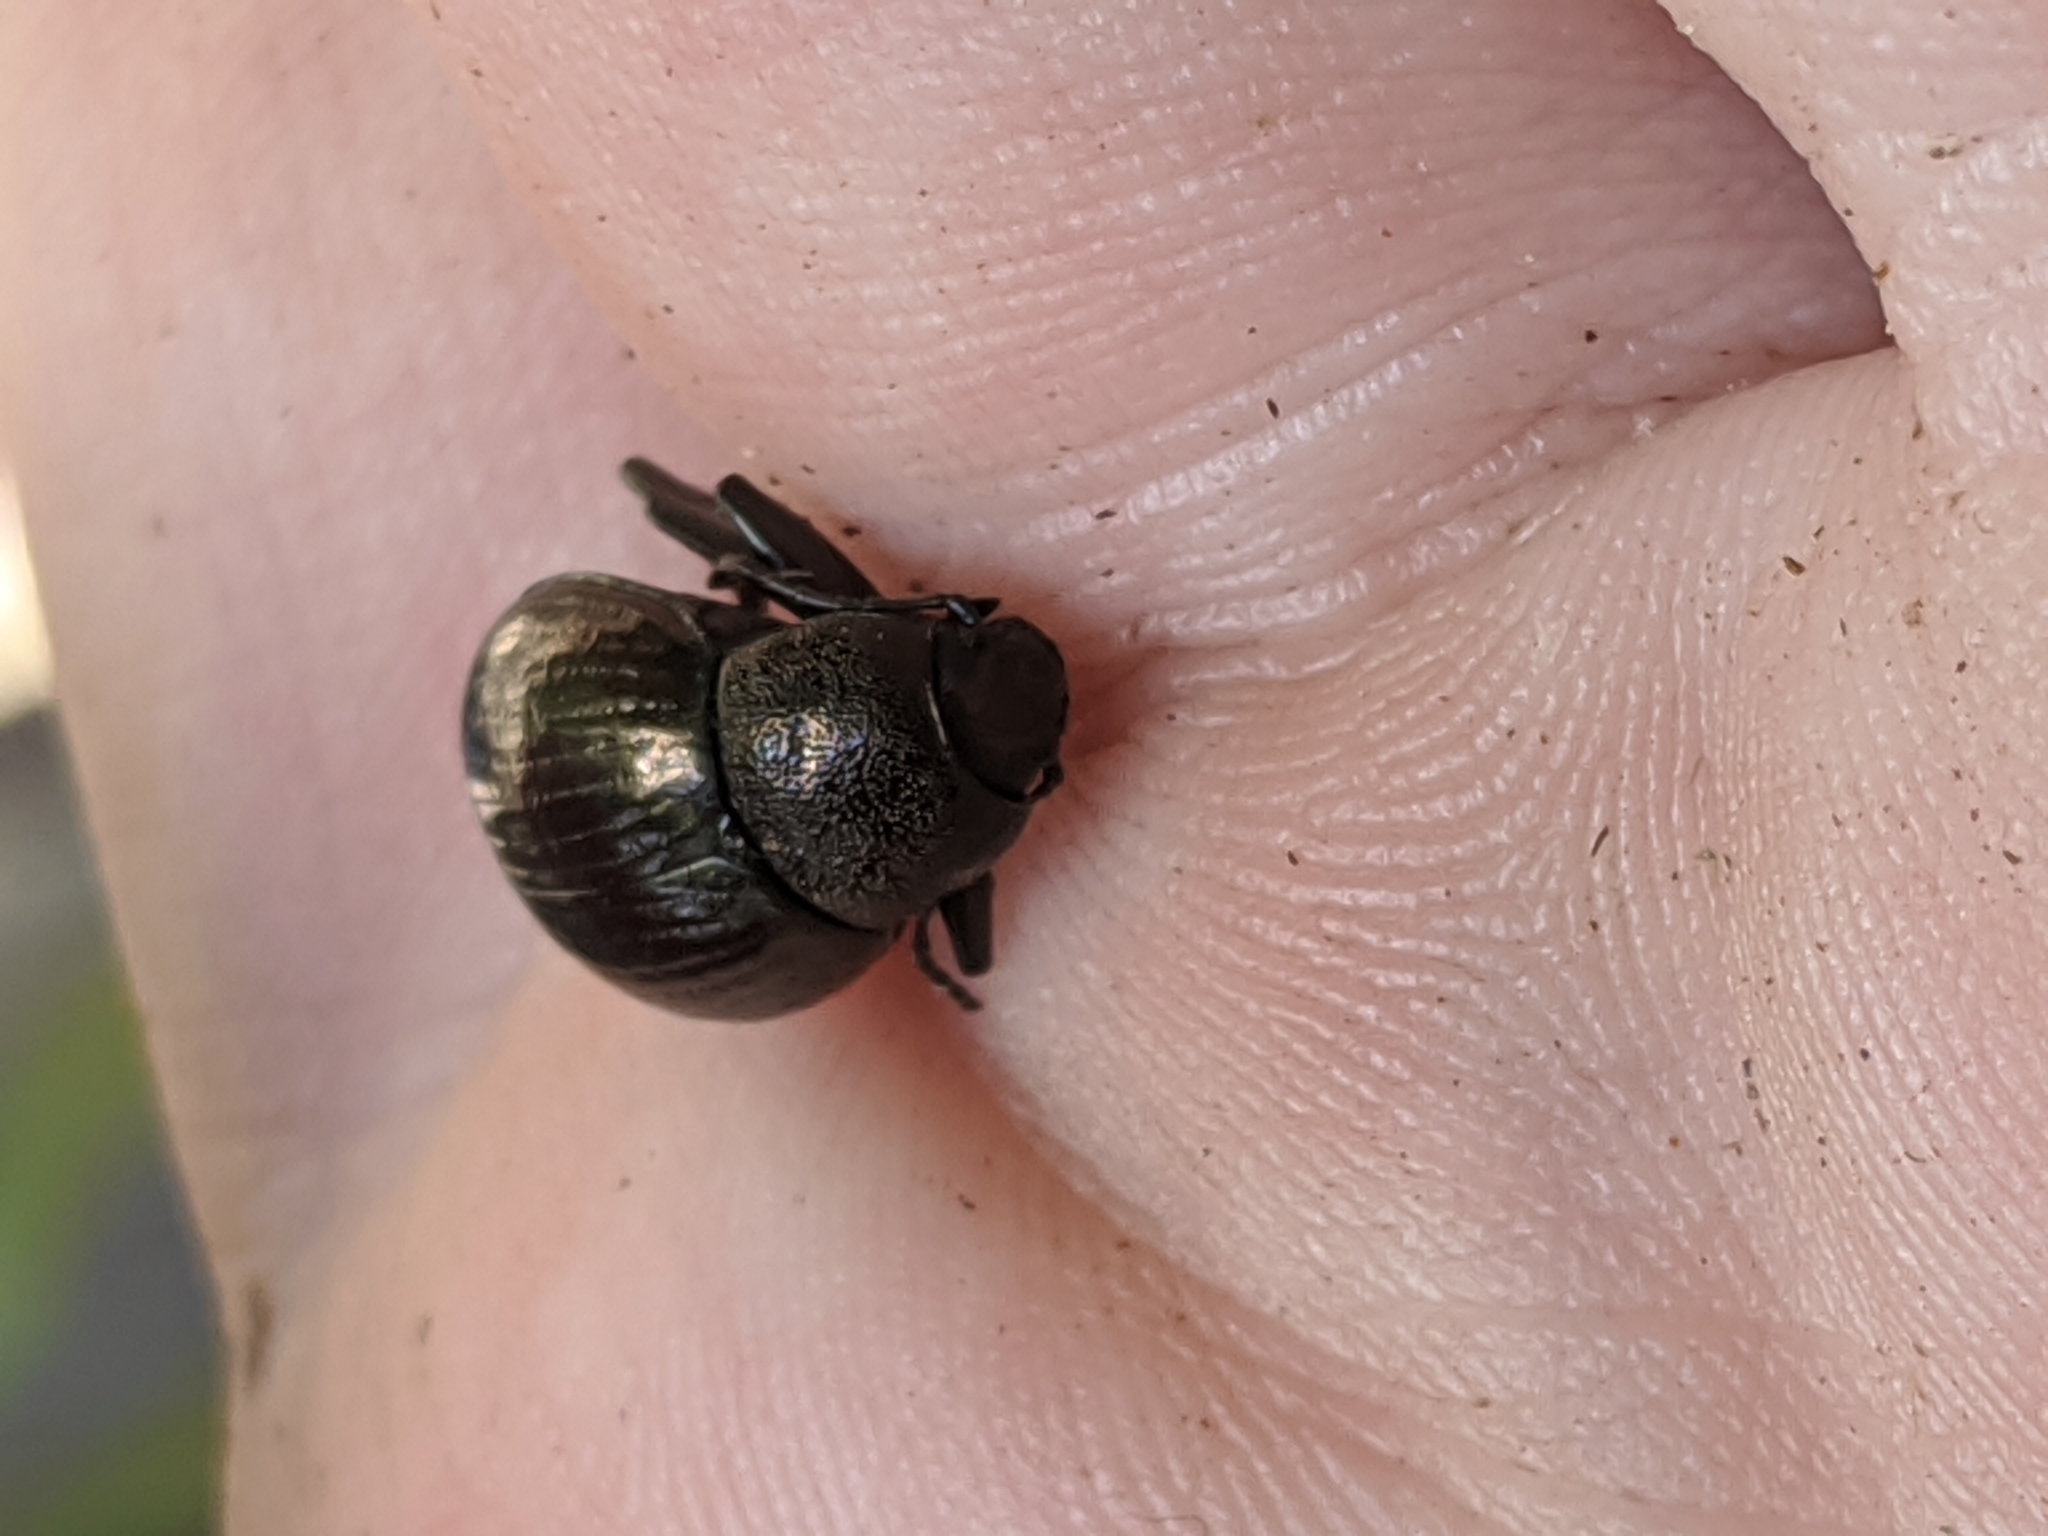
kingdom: Animalia
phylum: Arthropoda
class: Insecta
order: Coleoptera
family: Tenebrionidae
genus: Meracantha
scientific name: Meracantha contracta
